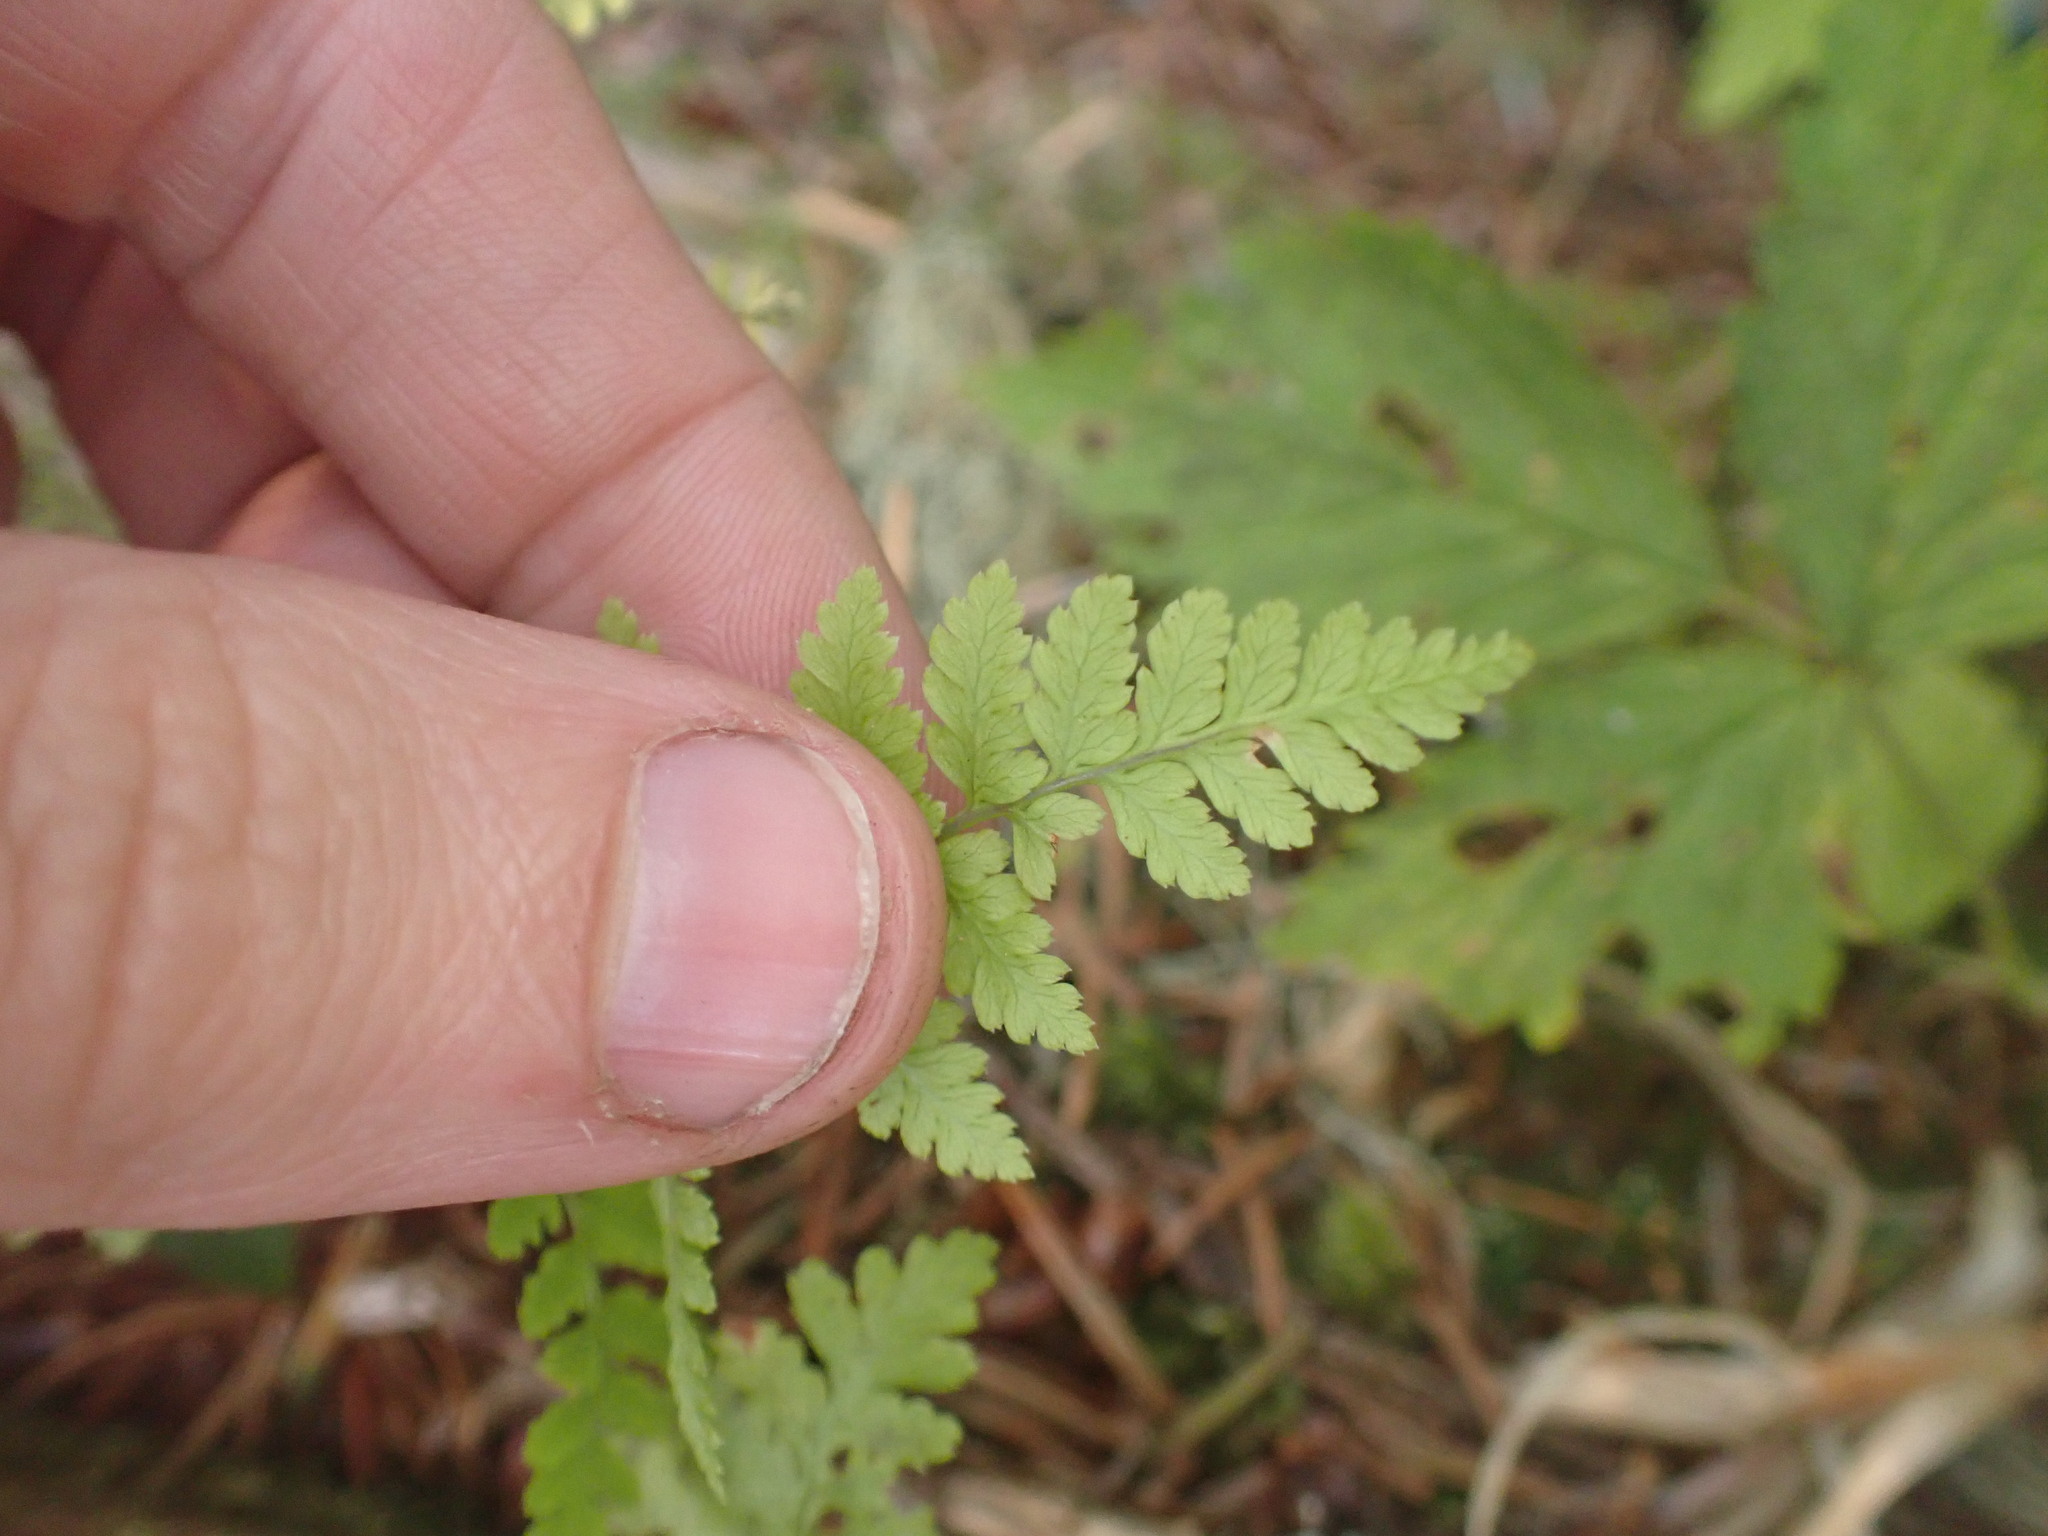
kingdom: Plantae
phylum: Tracheophyta
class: Polypodiopsida
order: Polypodiales
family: Dryopteridaceae
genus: Dryopteris
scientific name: Dryopteris expansa
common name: Northern buckler fern
